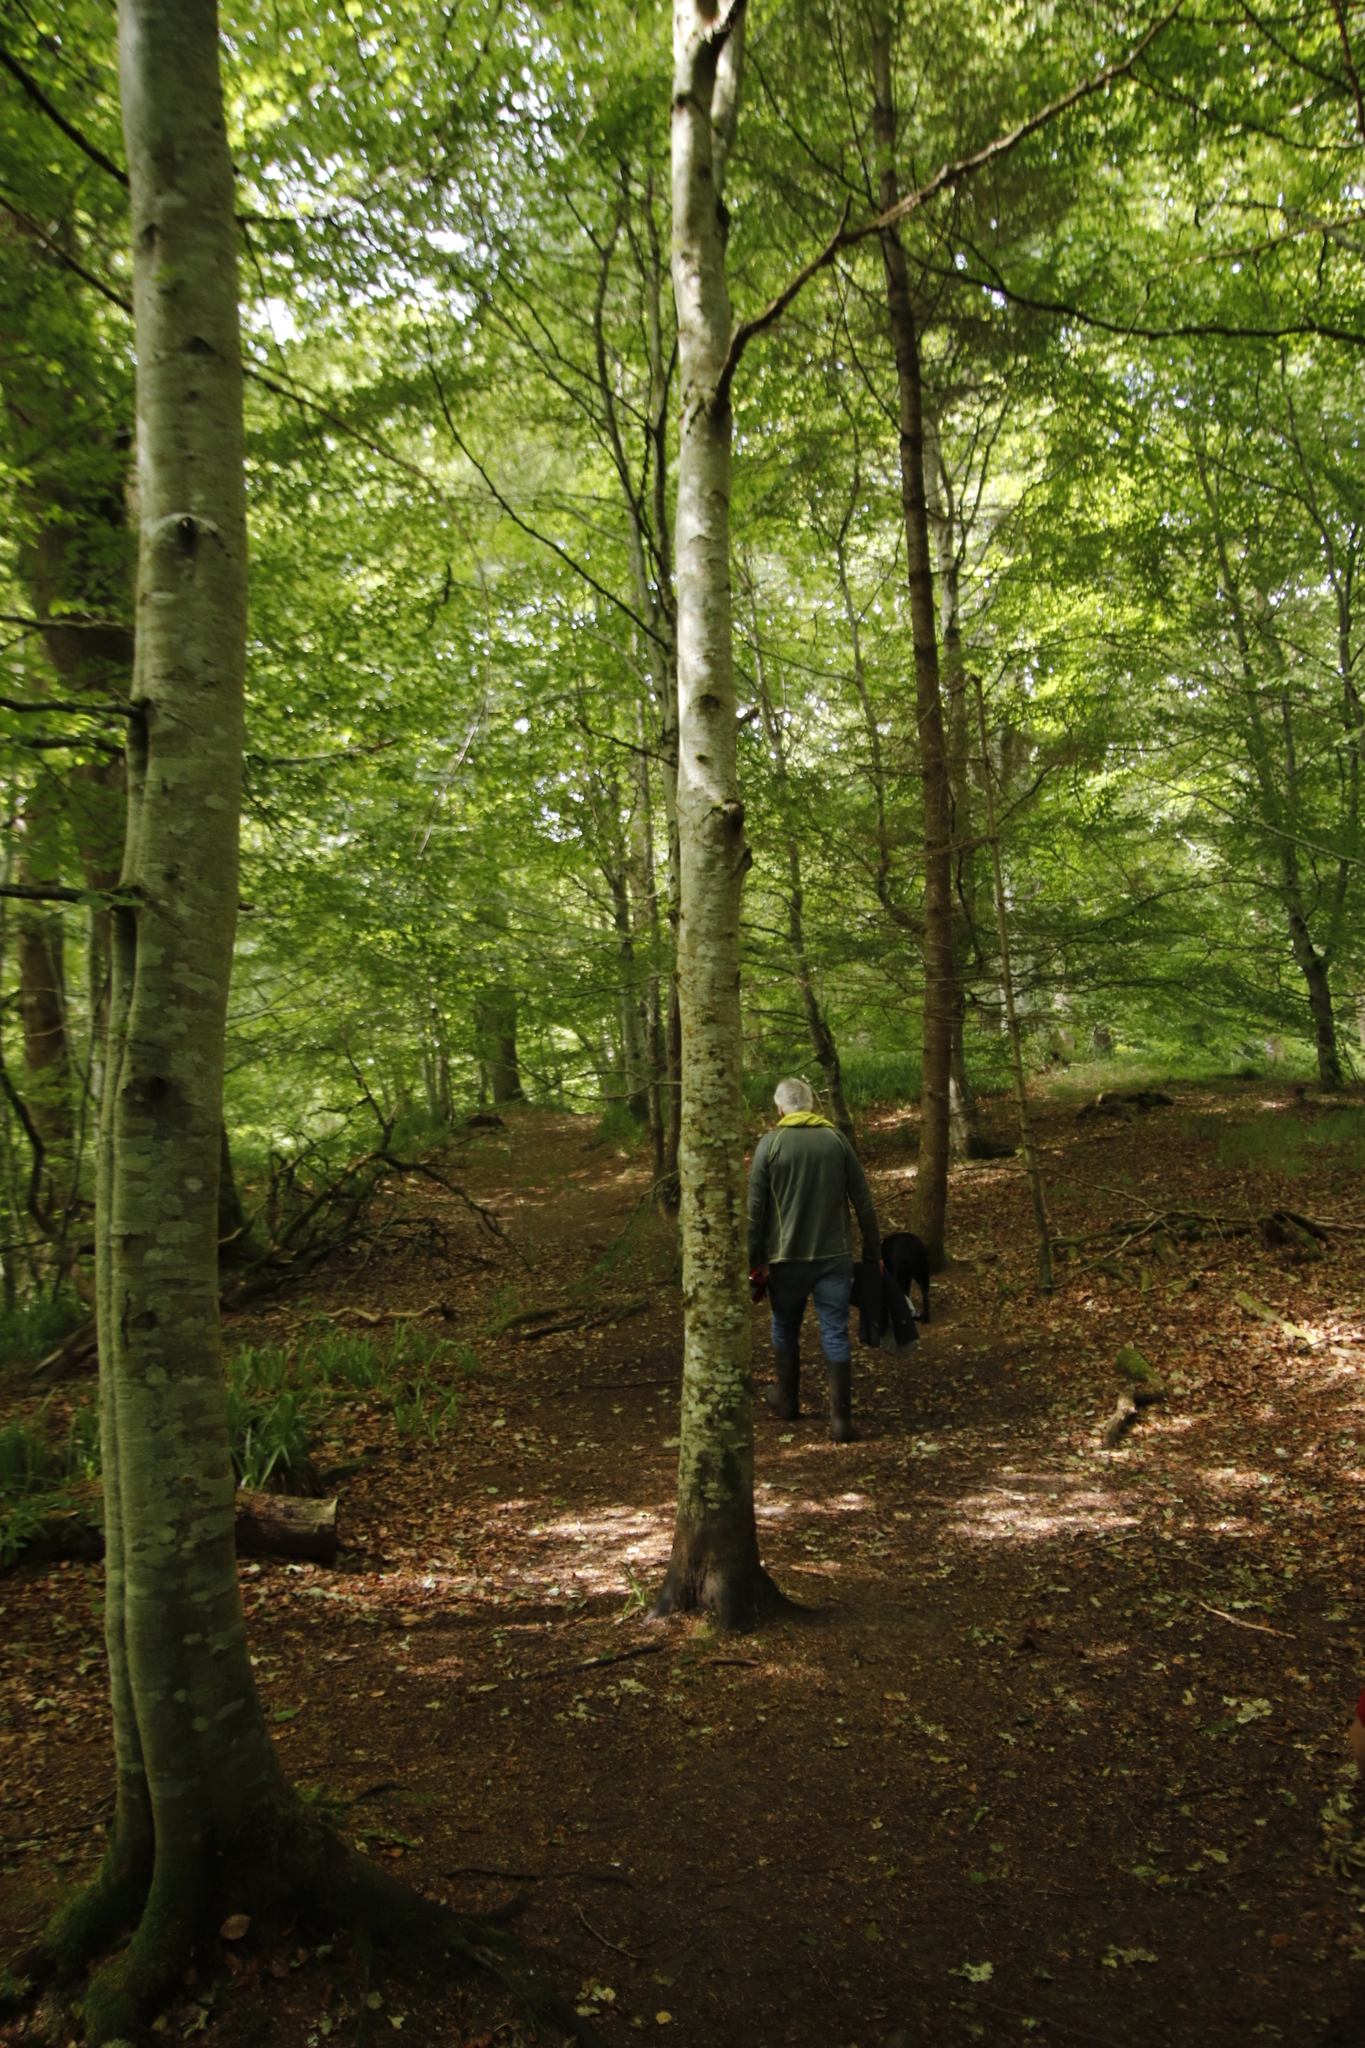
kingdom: Plantae
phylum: Tracheophyta
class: Magnoliopsida
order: Fagales
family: Fagaceae
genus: Fagus
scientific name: Fagus sylvatica
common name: Beech
